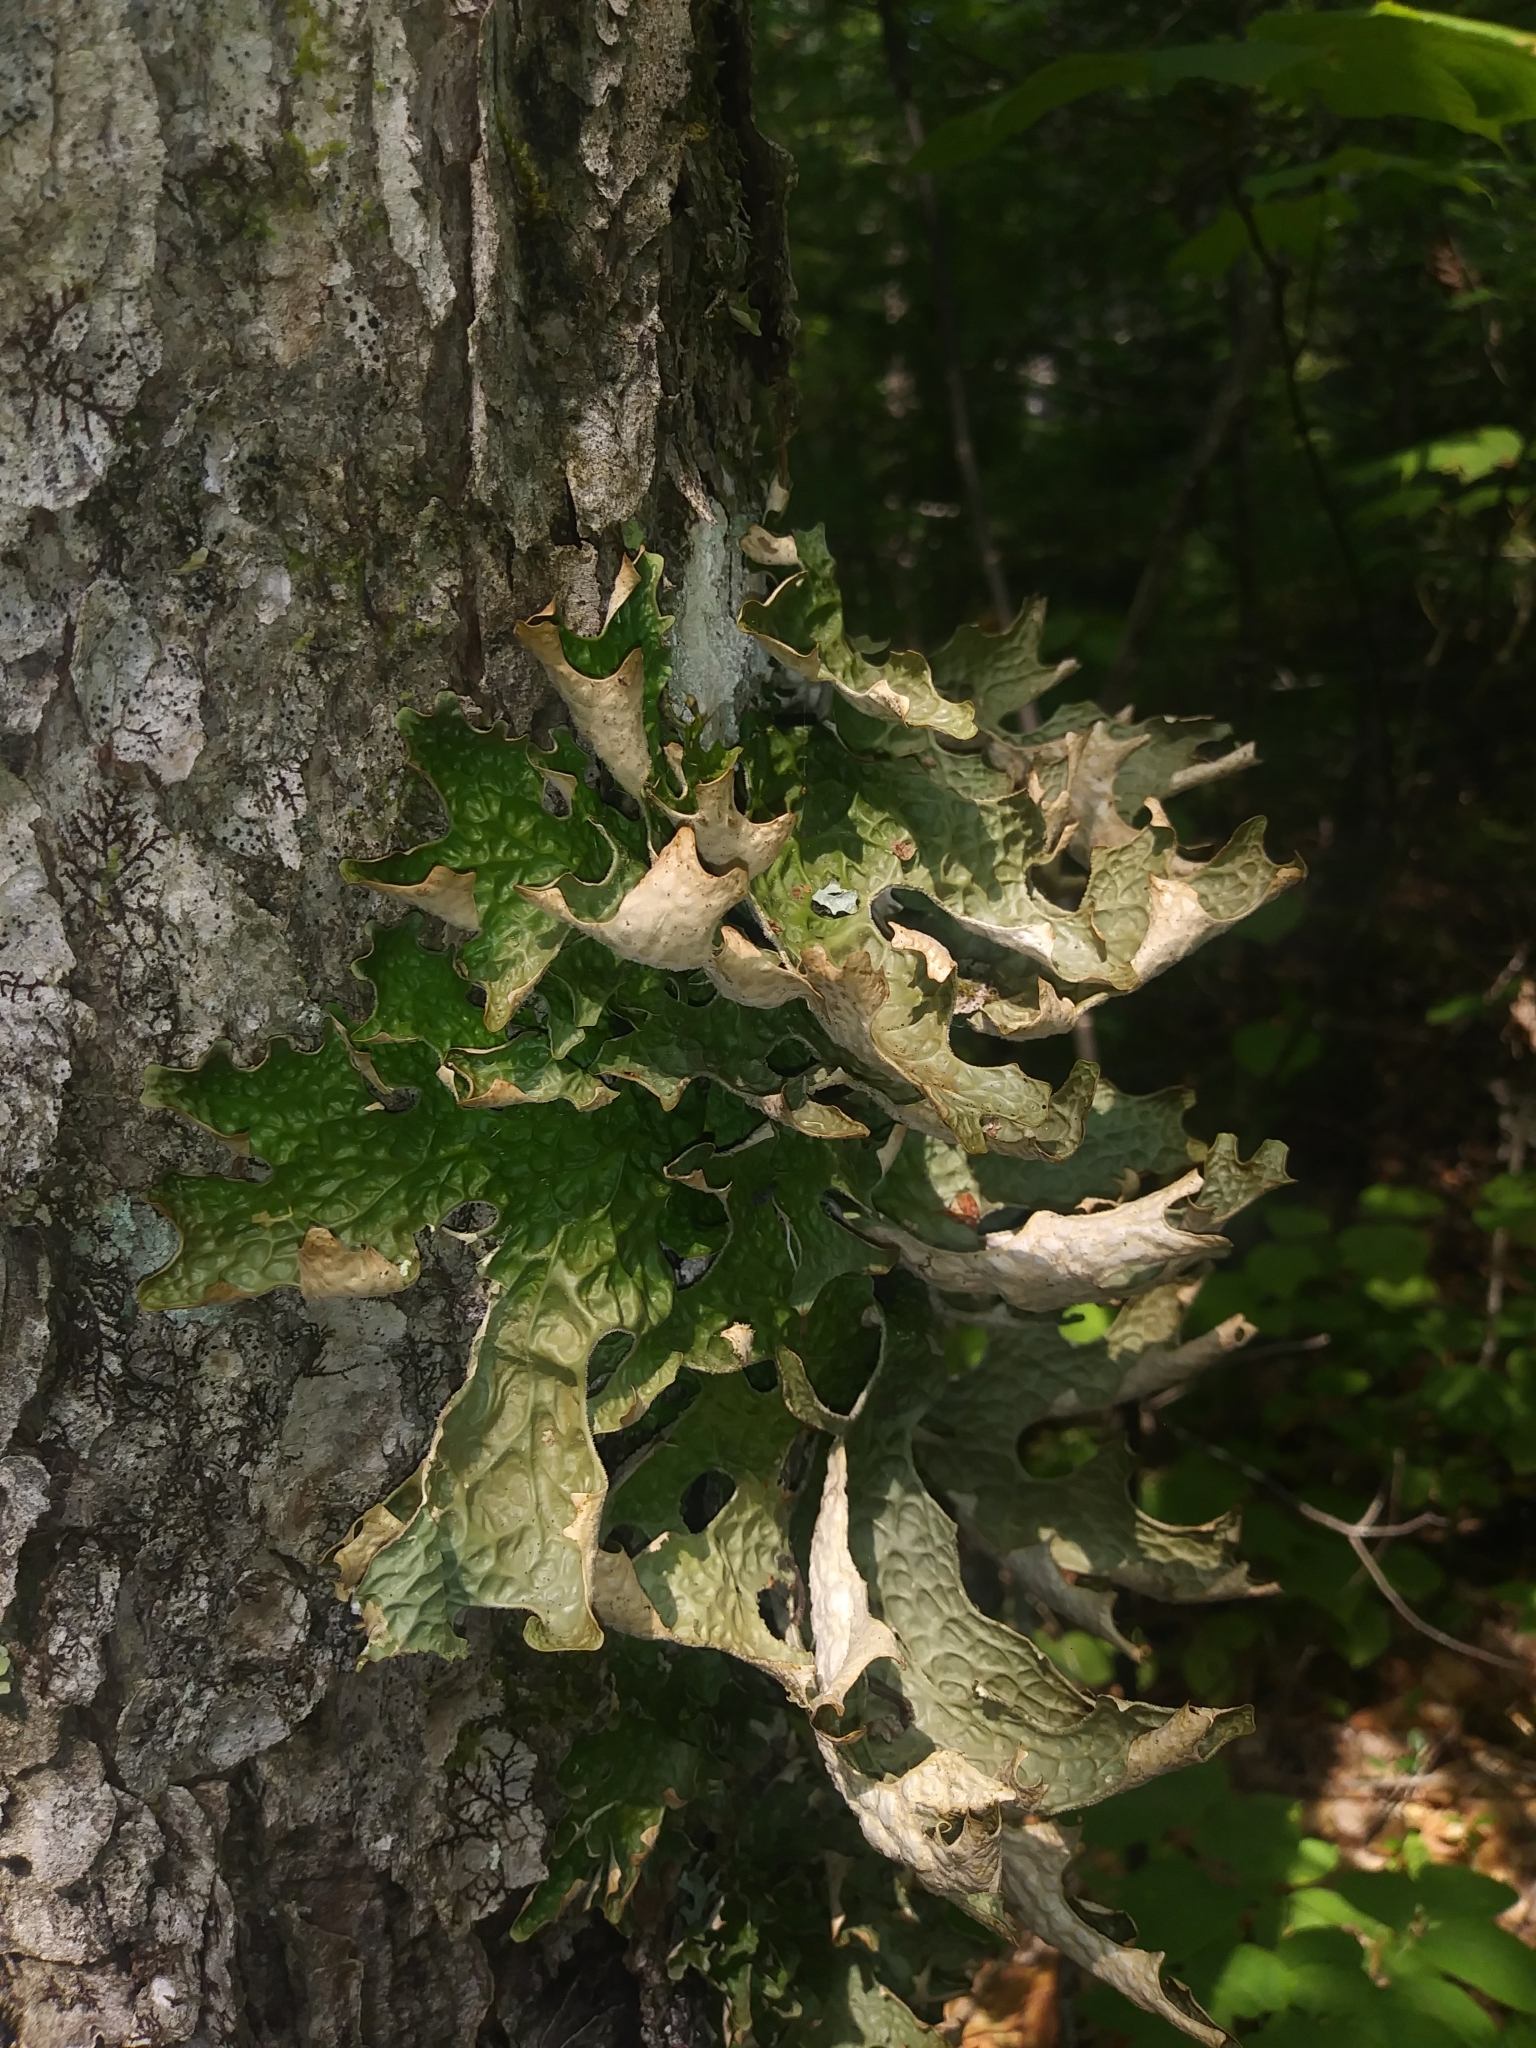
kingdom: Fungi
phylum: Ascomycota
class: Lecanoromycetes
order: Peltigerales
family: Lobariaceae
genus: Lobaria
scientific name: Lobaria pulmonaria
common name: Lungwort
